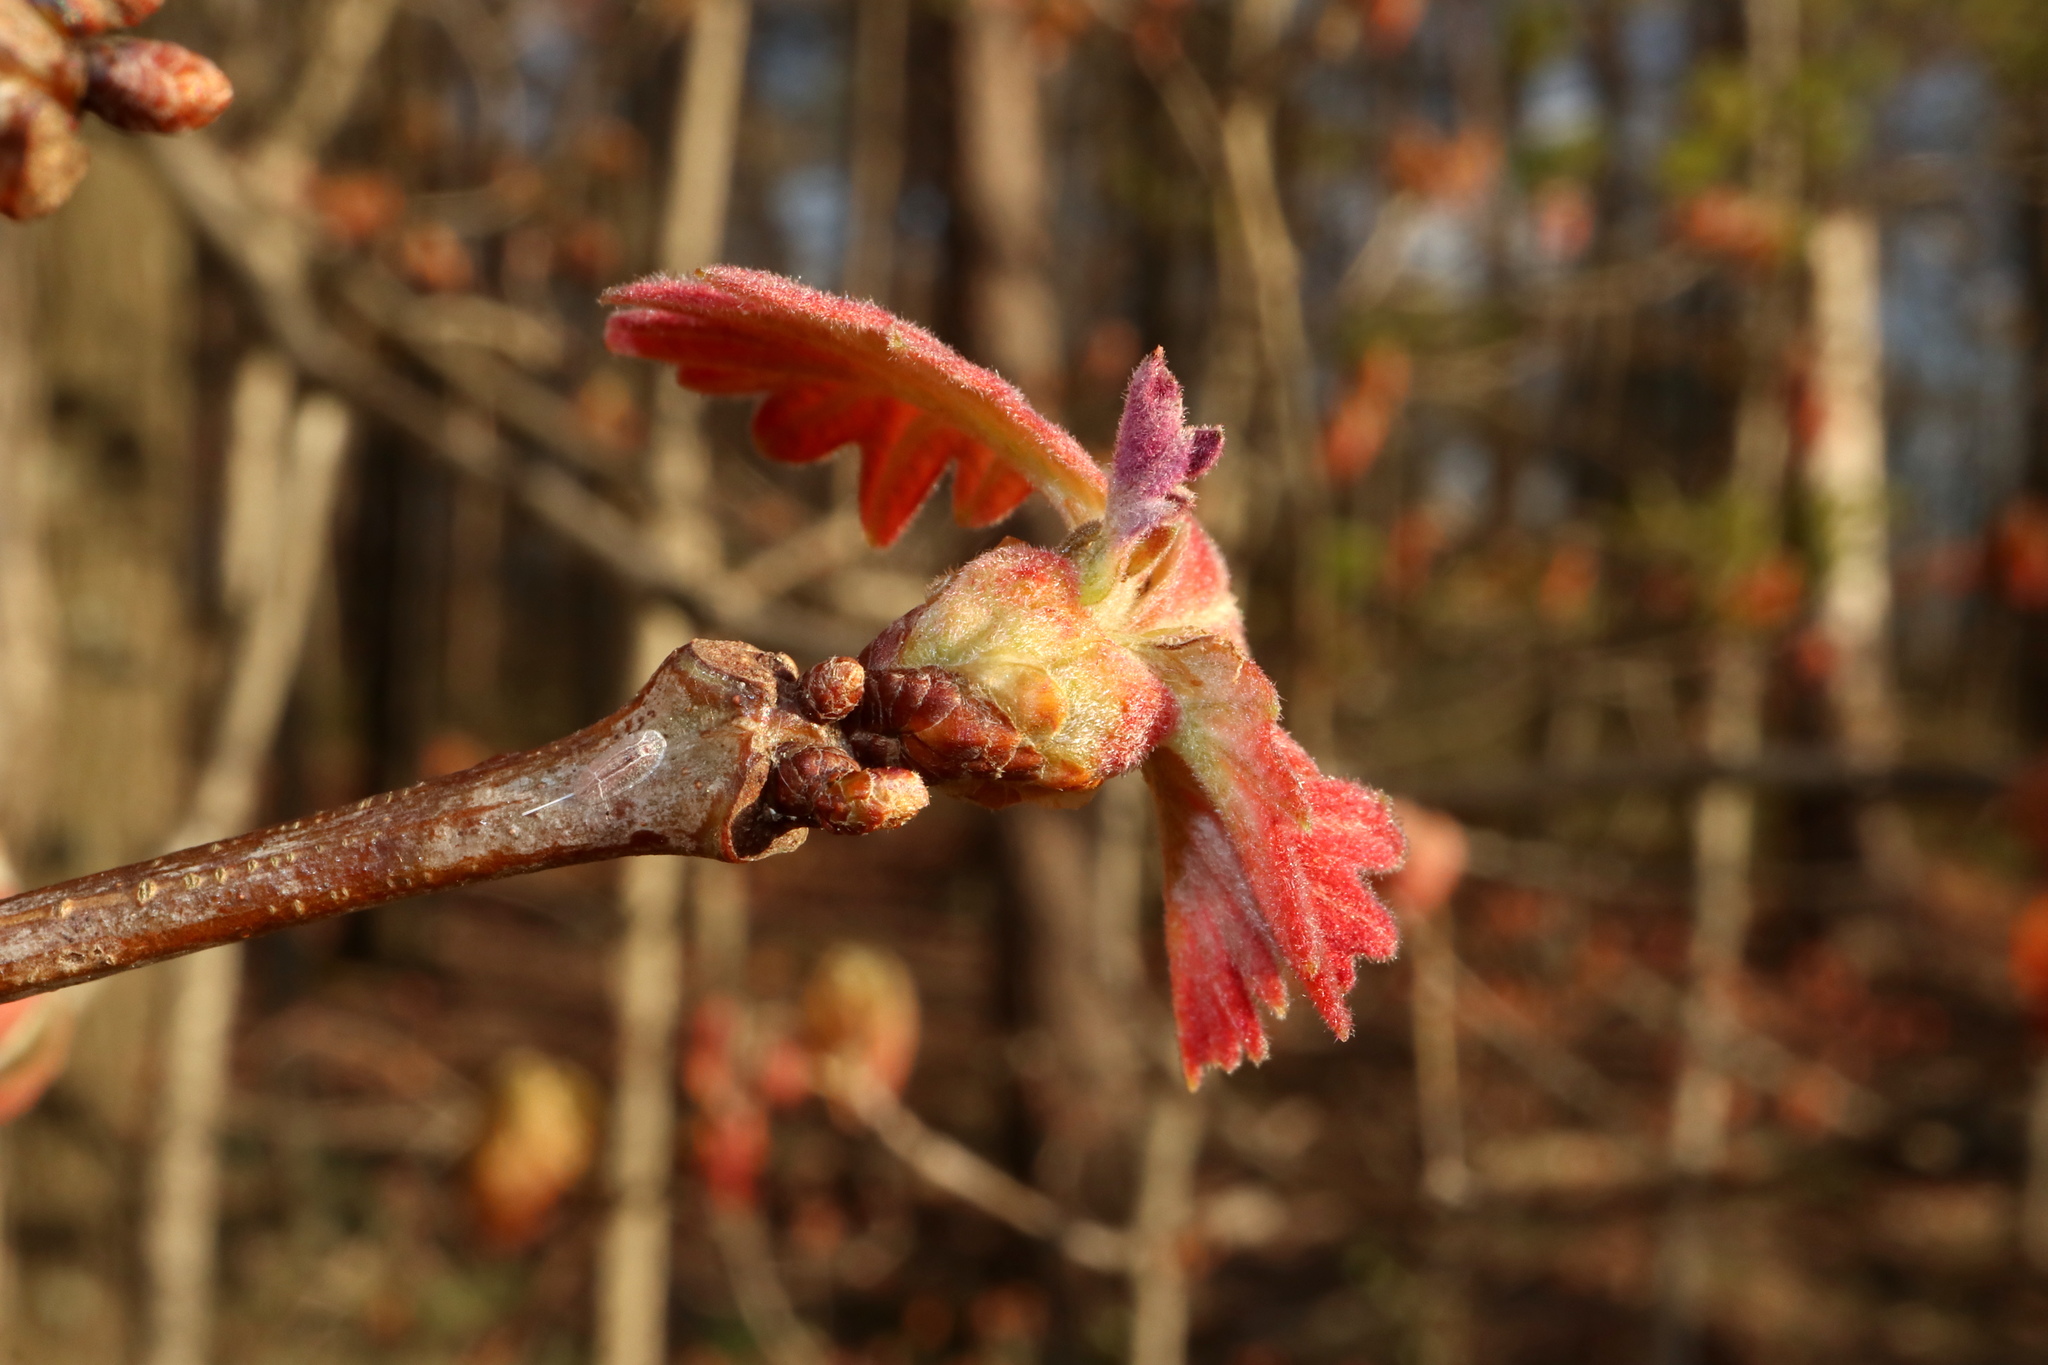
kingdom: Animalia
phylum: Arthropoda
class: Insecta
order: Hymenoptera
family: Cynipidae
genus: Neuroterus
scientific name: Neuroterus minutulus
